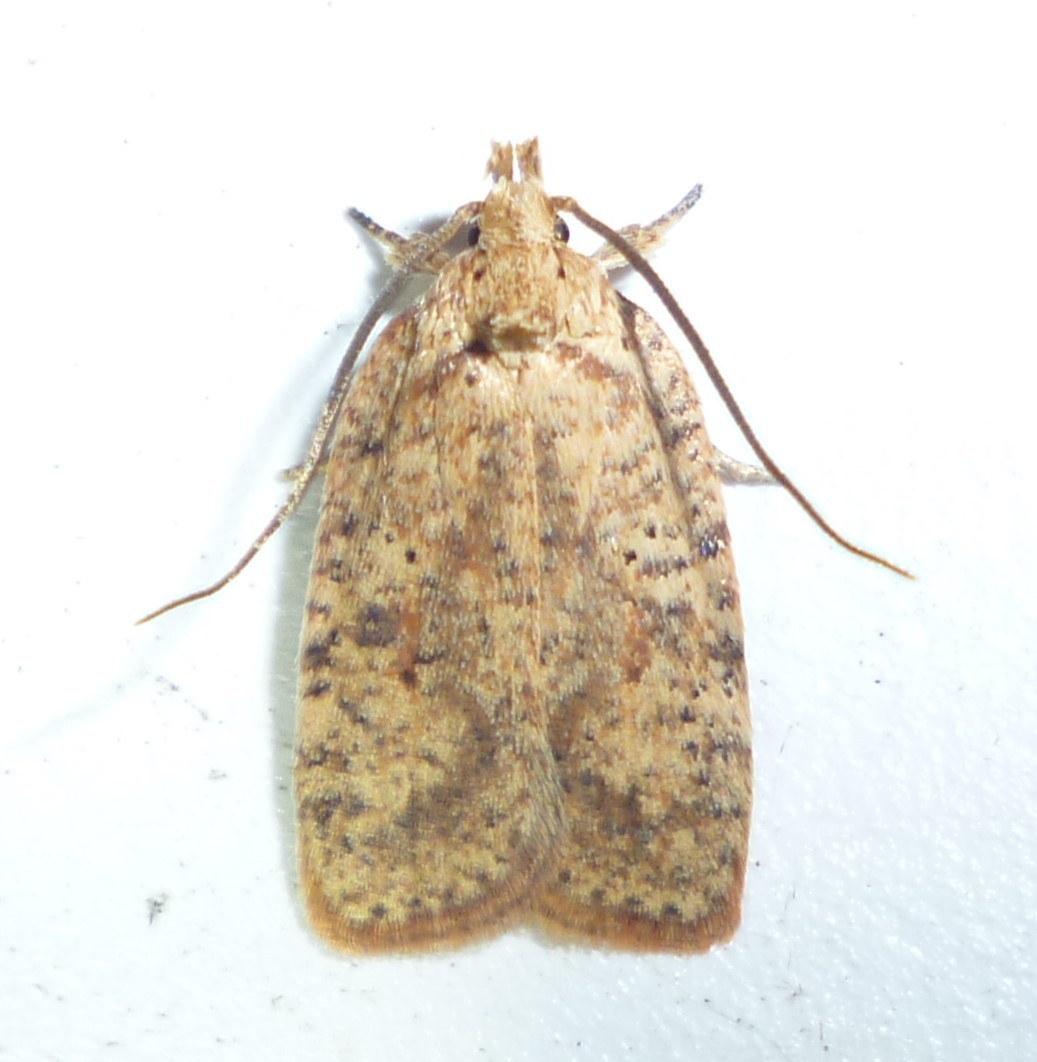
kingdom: Animalia
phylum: Arthropoda
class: Insecta
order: Lepidoptera
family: Depressariidae
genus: Agonopterix
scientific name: Agonopterix thelmae
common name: Thelma's agonopterix moth
